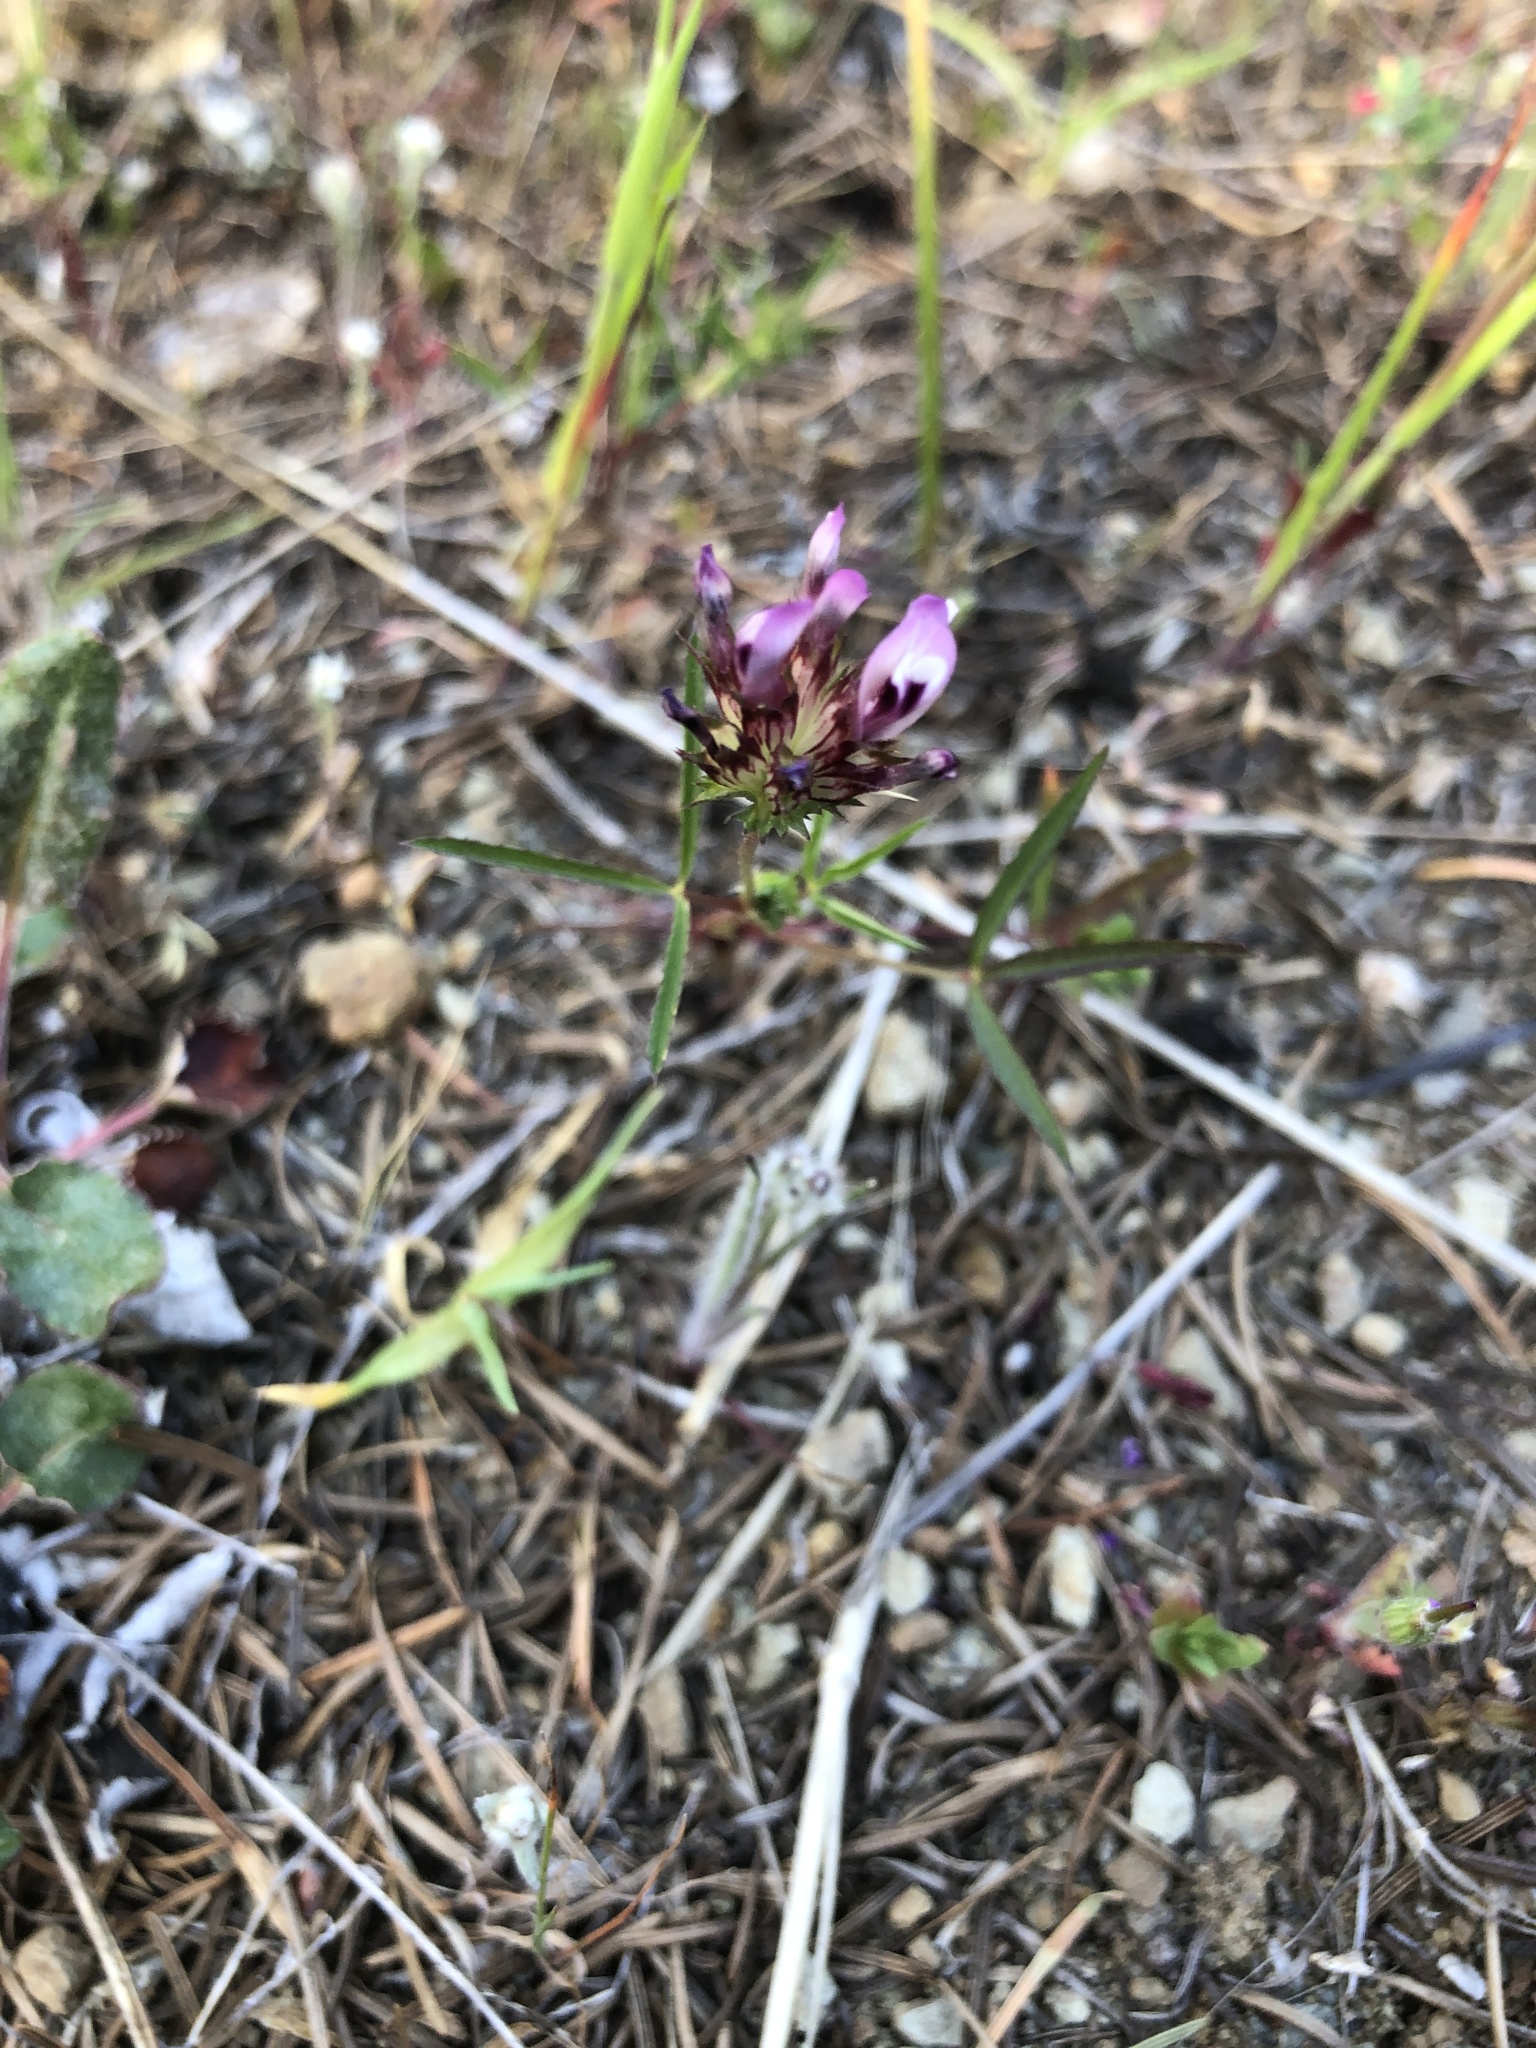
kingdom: Plantae
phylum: Tracheophyta
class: Magnoliopsida
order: Fabales
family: Fabaceae
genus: Trifolium
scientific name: Trifolium willdenovii
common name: Tomcat clover
